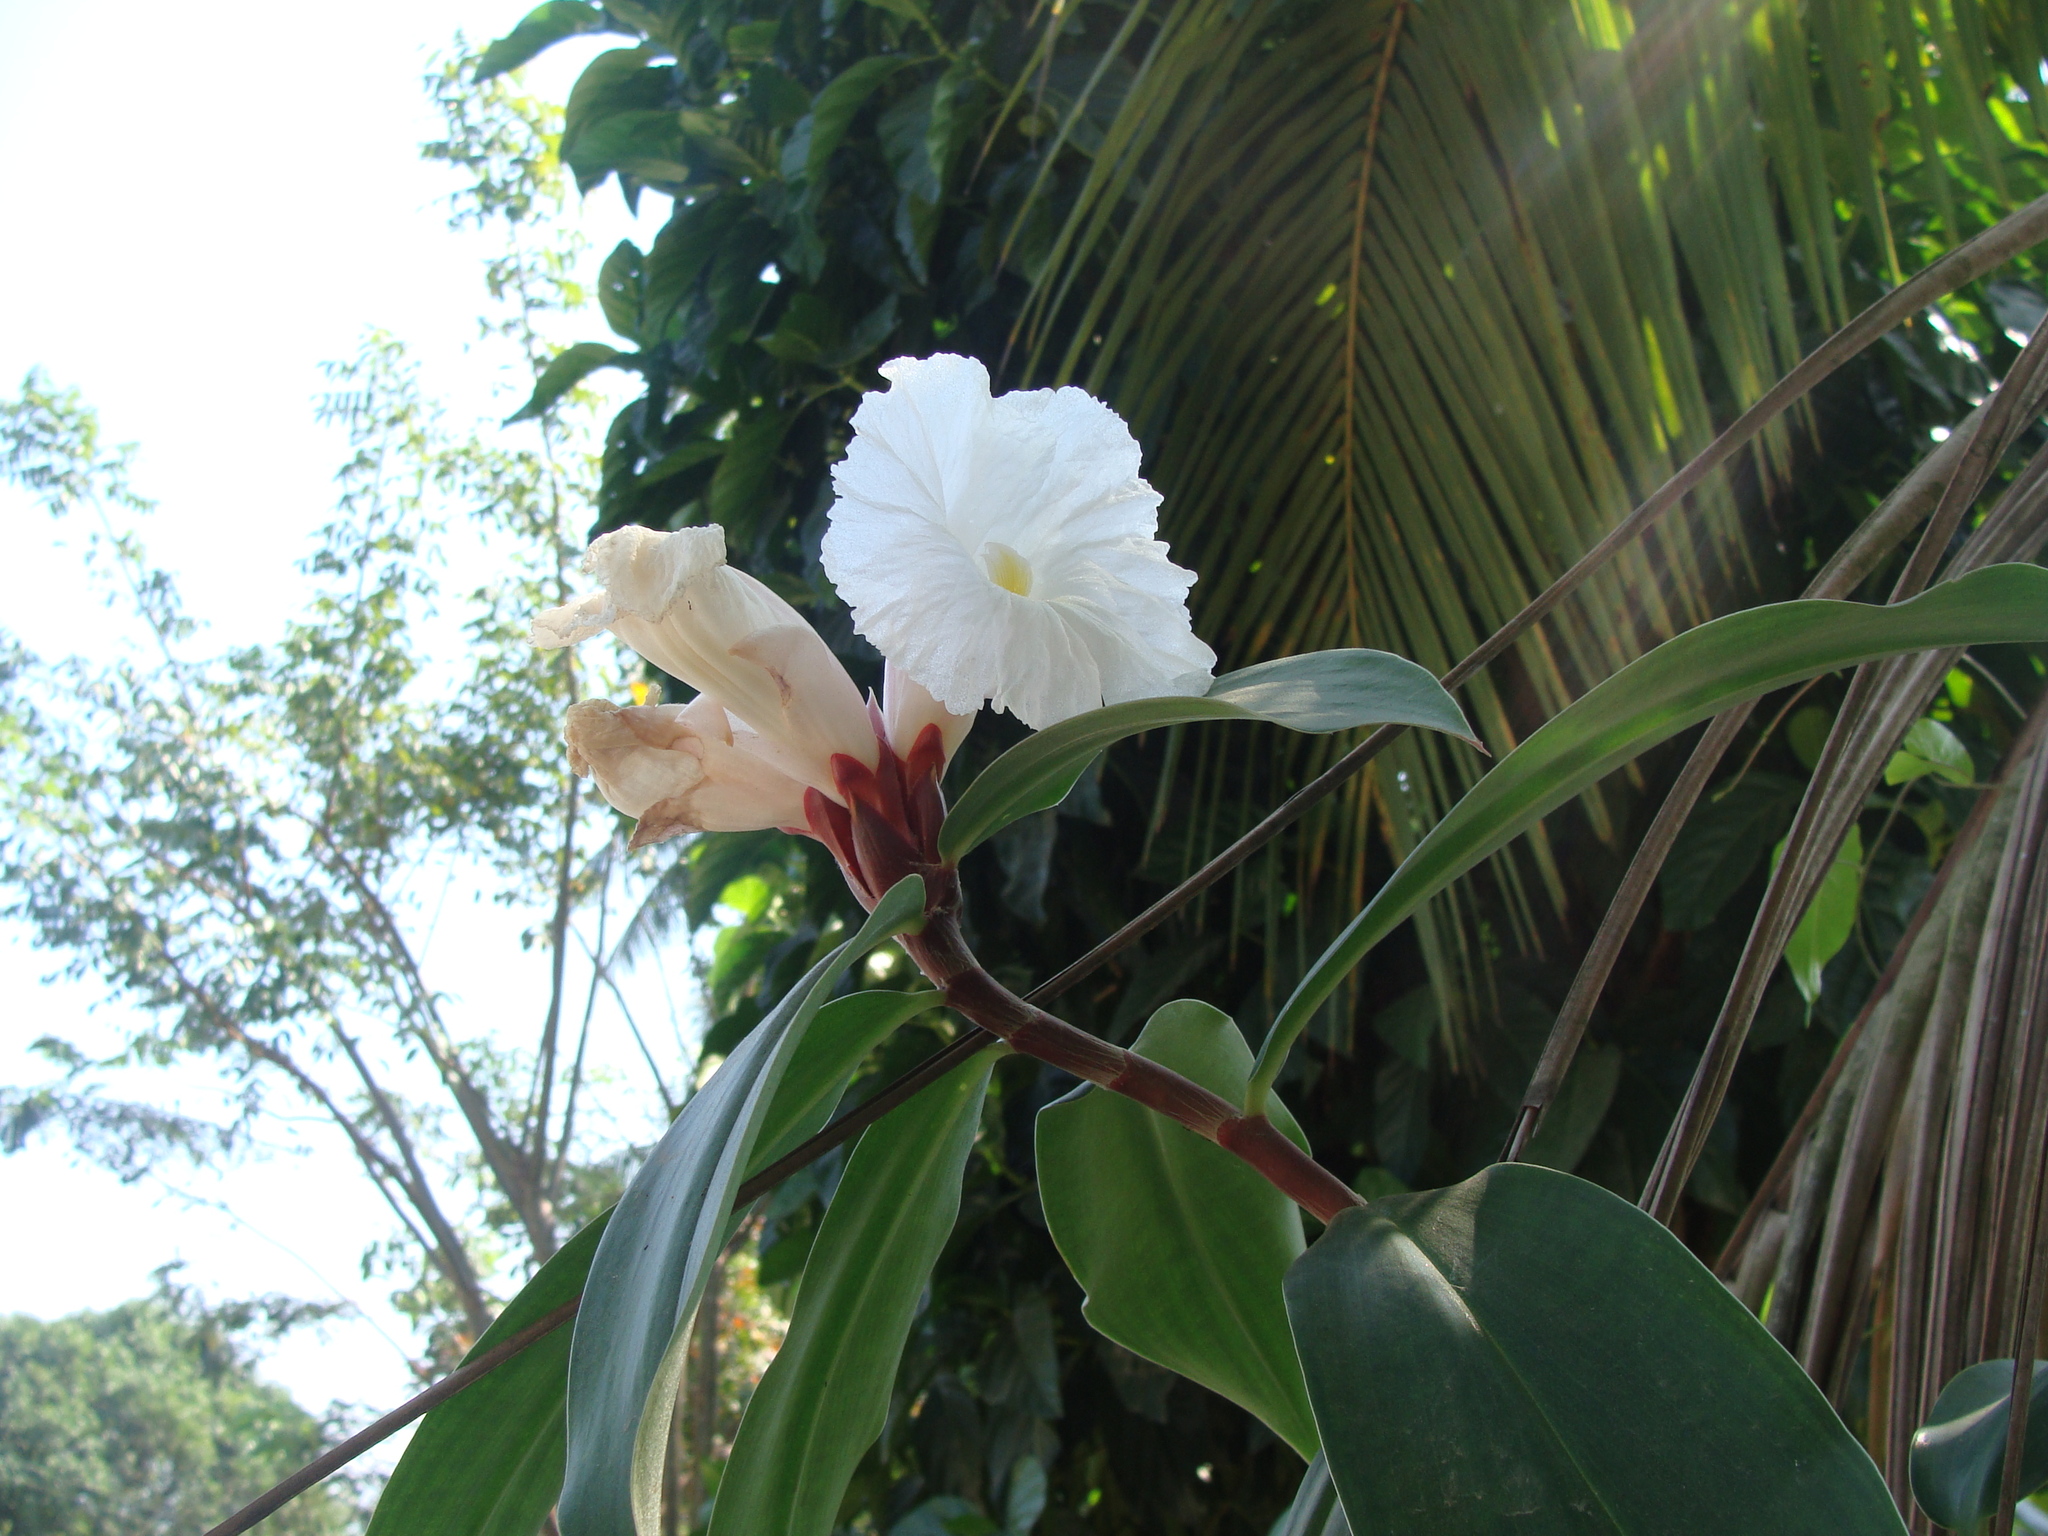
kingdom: Plantae
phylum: Tracheophyta
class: Liliopsida
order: Zingiberales
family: Costaceae
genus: Hellenia
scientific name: Hellenia speciosa
